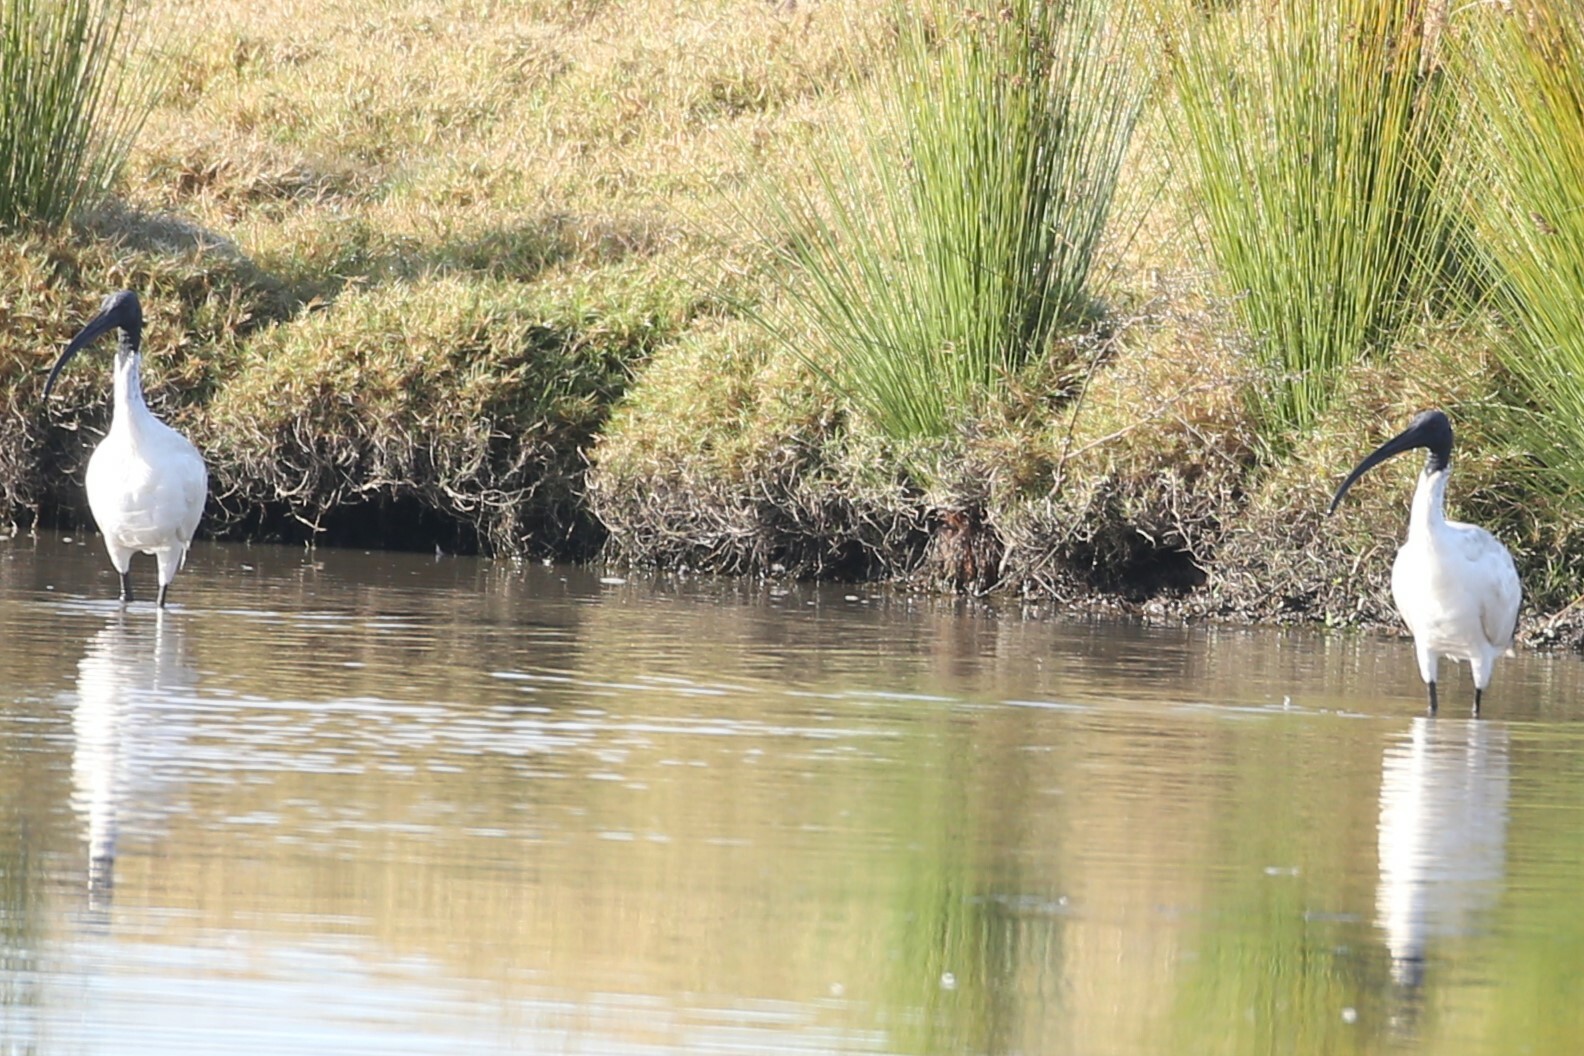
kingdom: Animalia
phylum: Chordata
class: Aves
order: Pelecaniformes
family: Threskiornithidae
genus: Threskiornis
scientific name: Threskiornis molucca
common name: Australian white ibis
